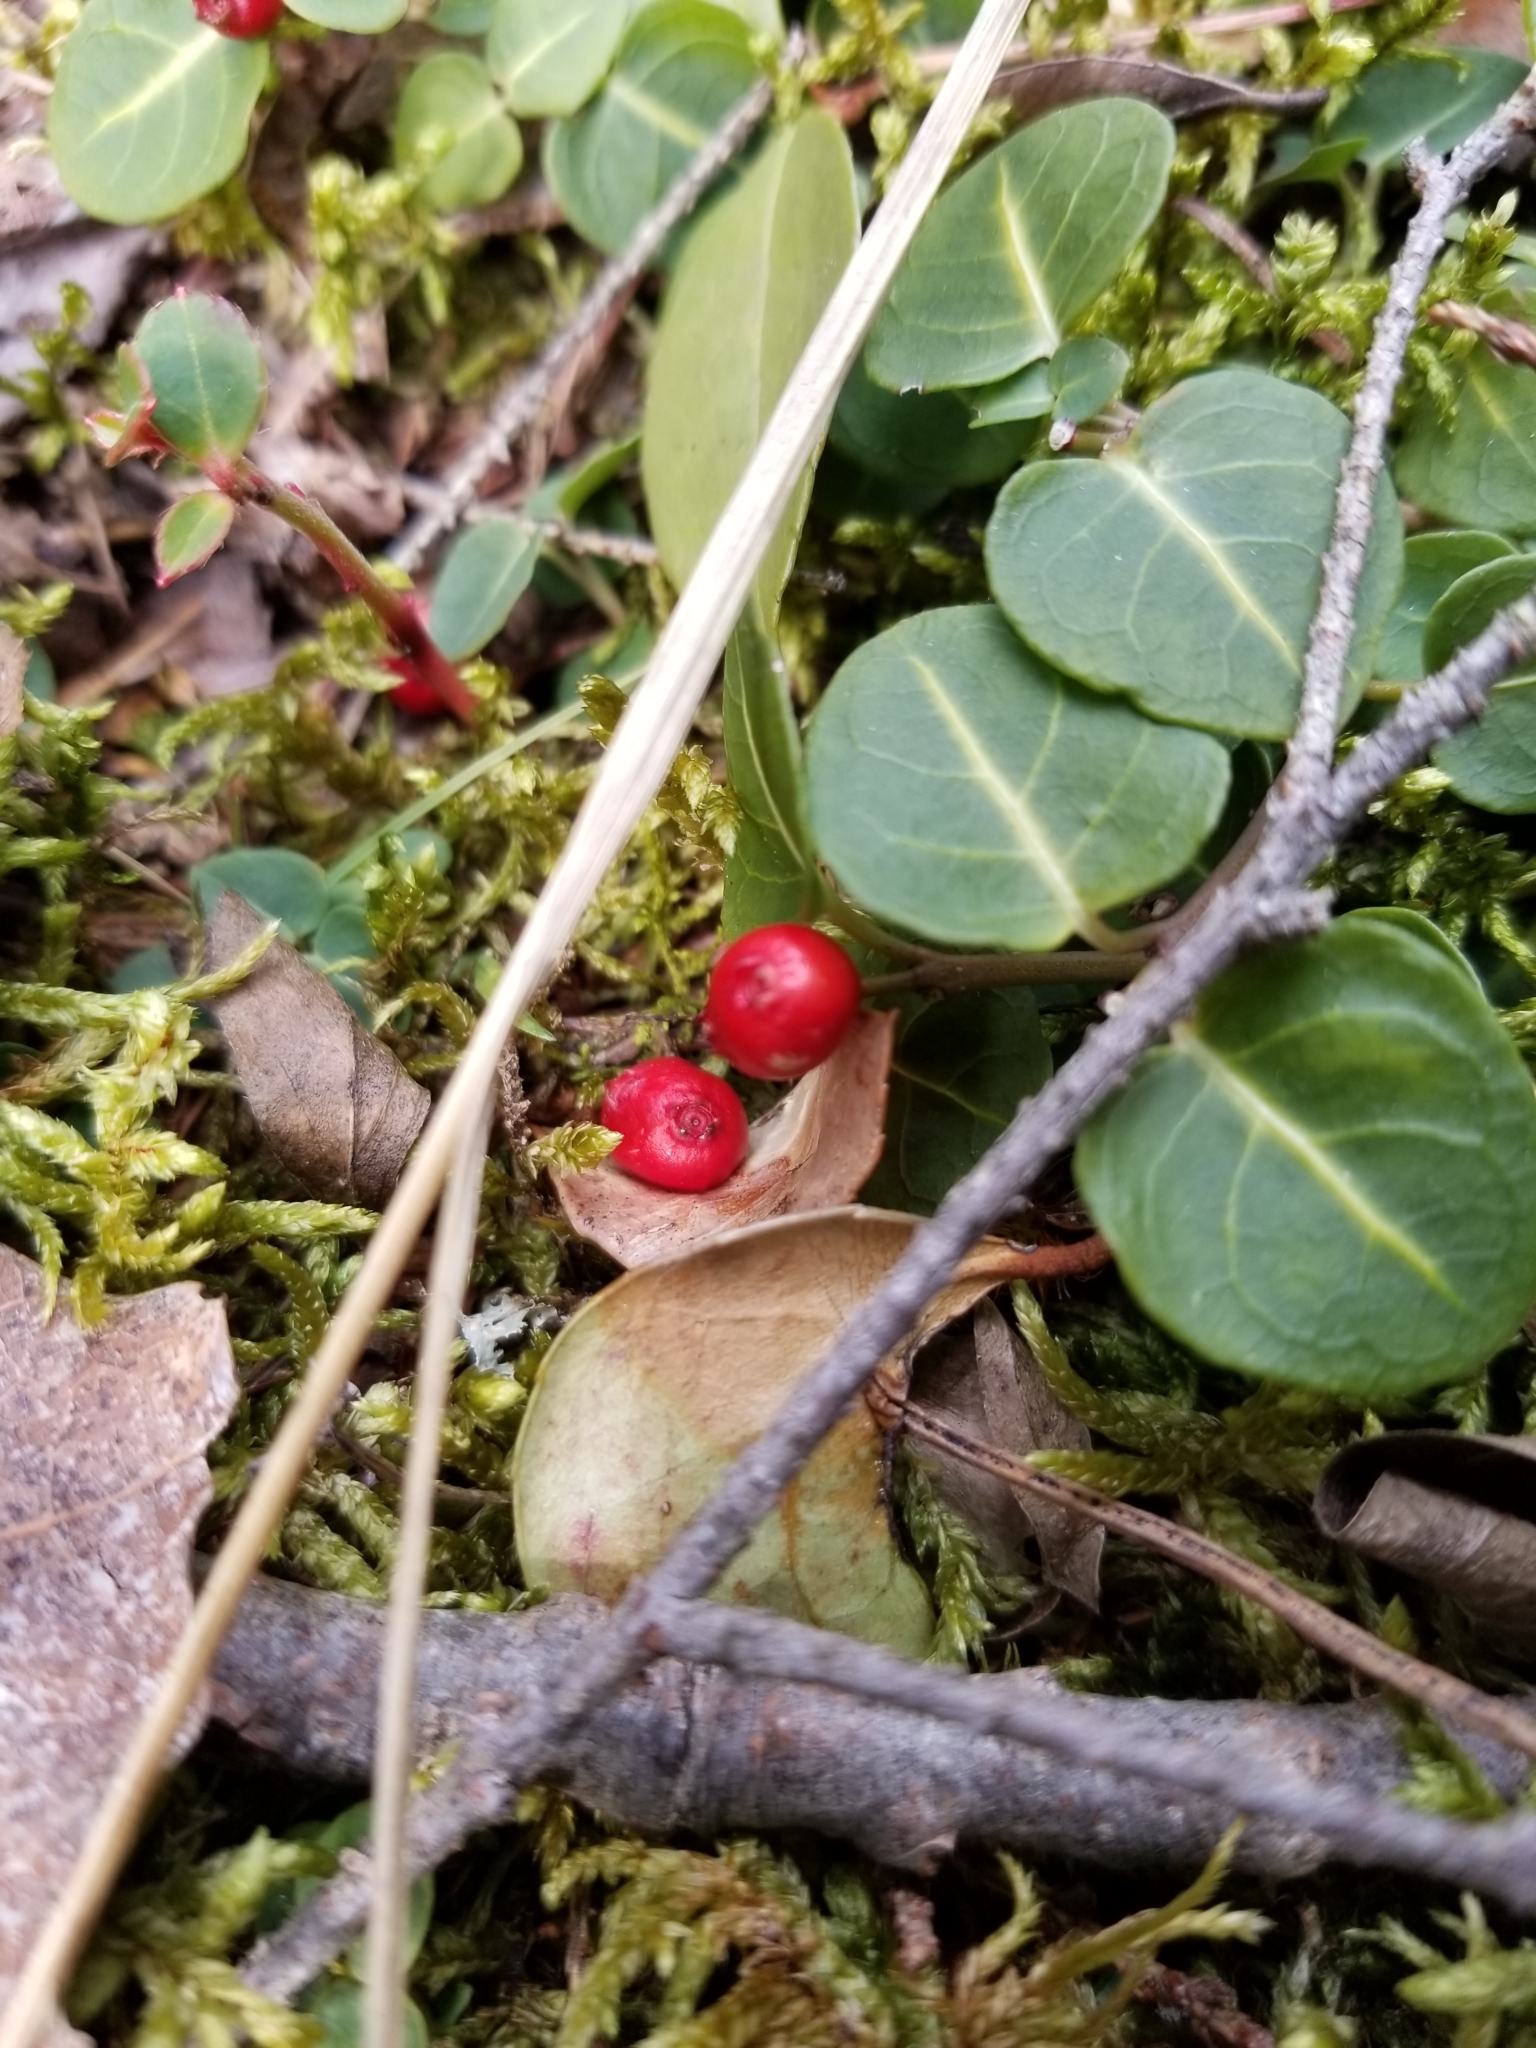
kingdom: Plantae
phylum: Tracheophyta
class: Magnoliopsida
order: Gentianales
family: Rubiaceae
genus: Mitchella
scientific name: Mitchella repens
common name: Partridge-berry
